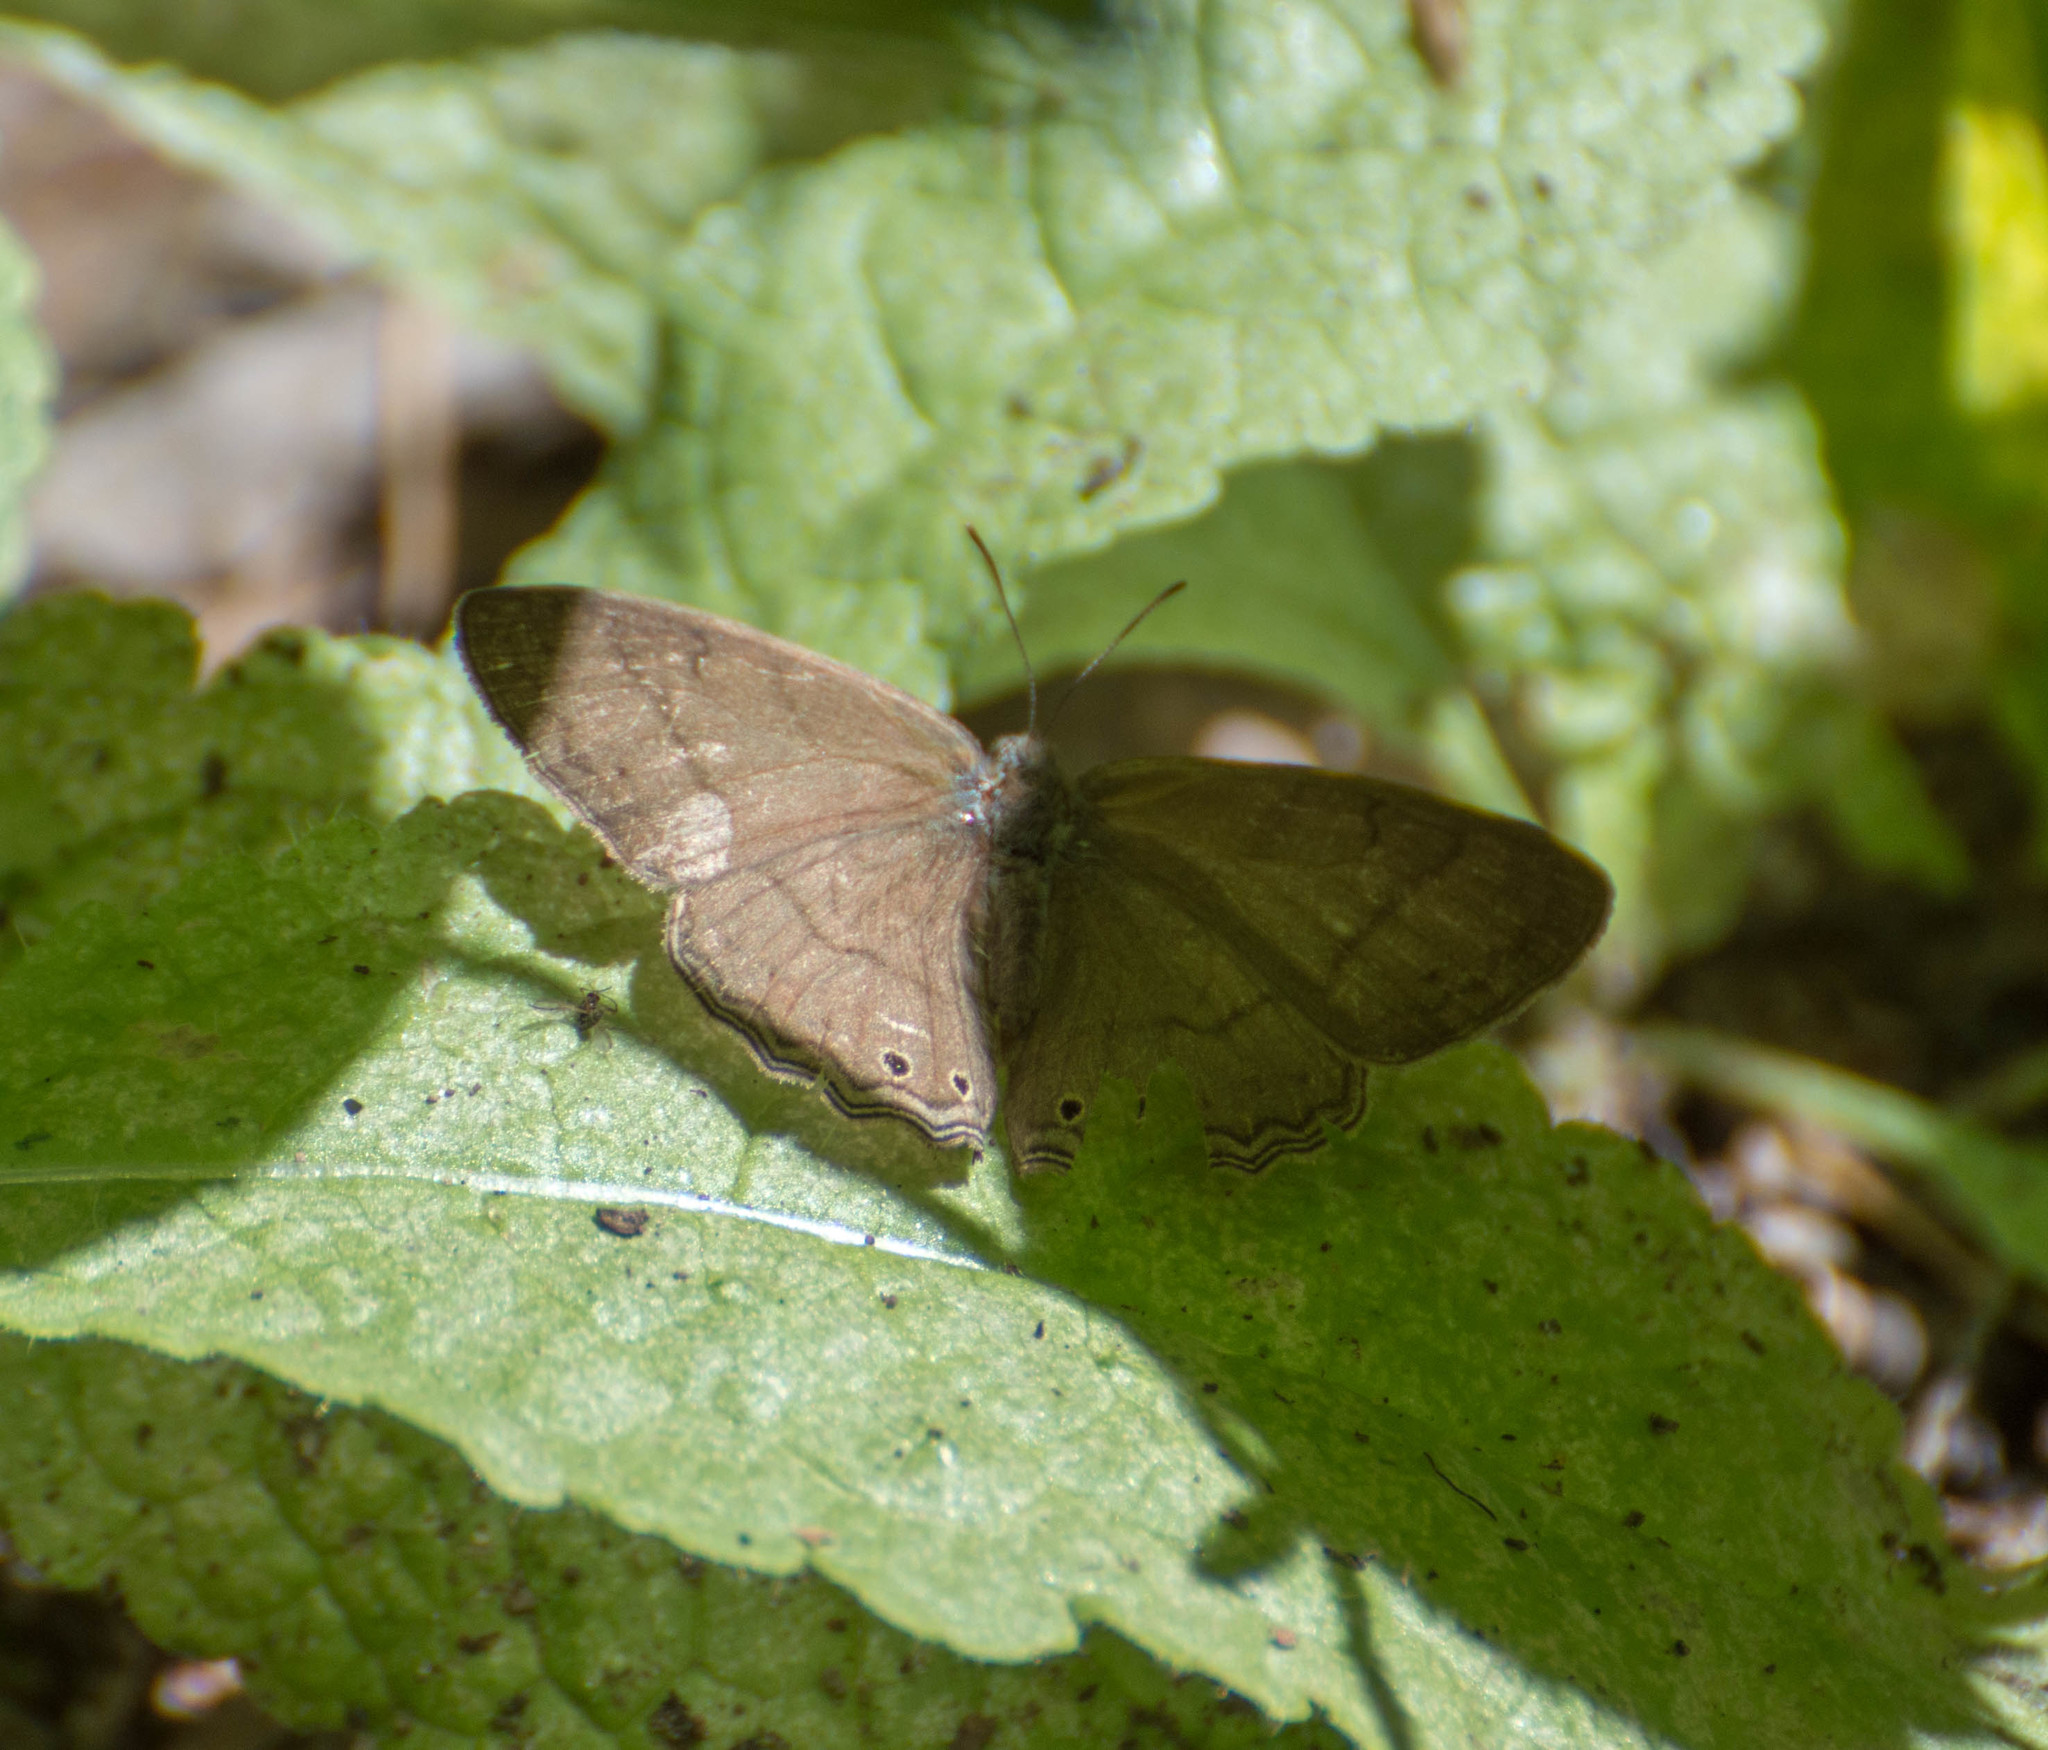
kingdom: Animalia
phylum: Arthropoda
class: Insecta
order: Lepidoptera
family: Nymphalidae
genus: Paryphthimoides
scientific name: Paryphthimoides poltys
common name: Poltys satyr
